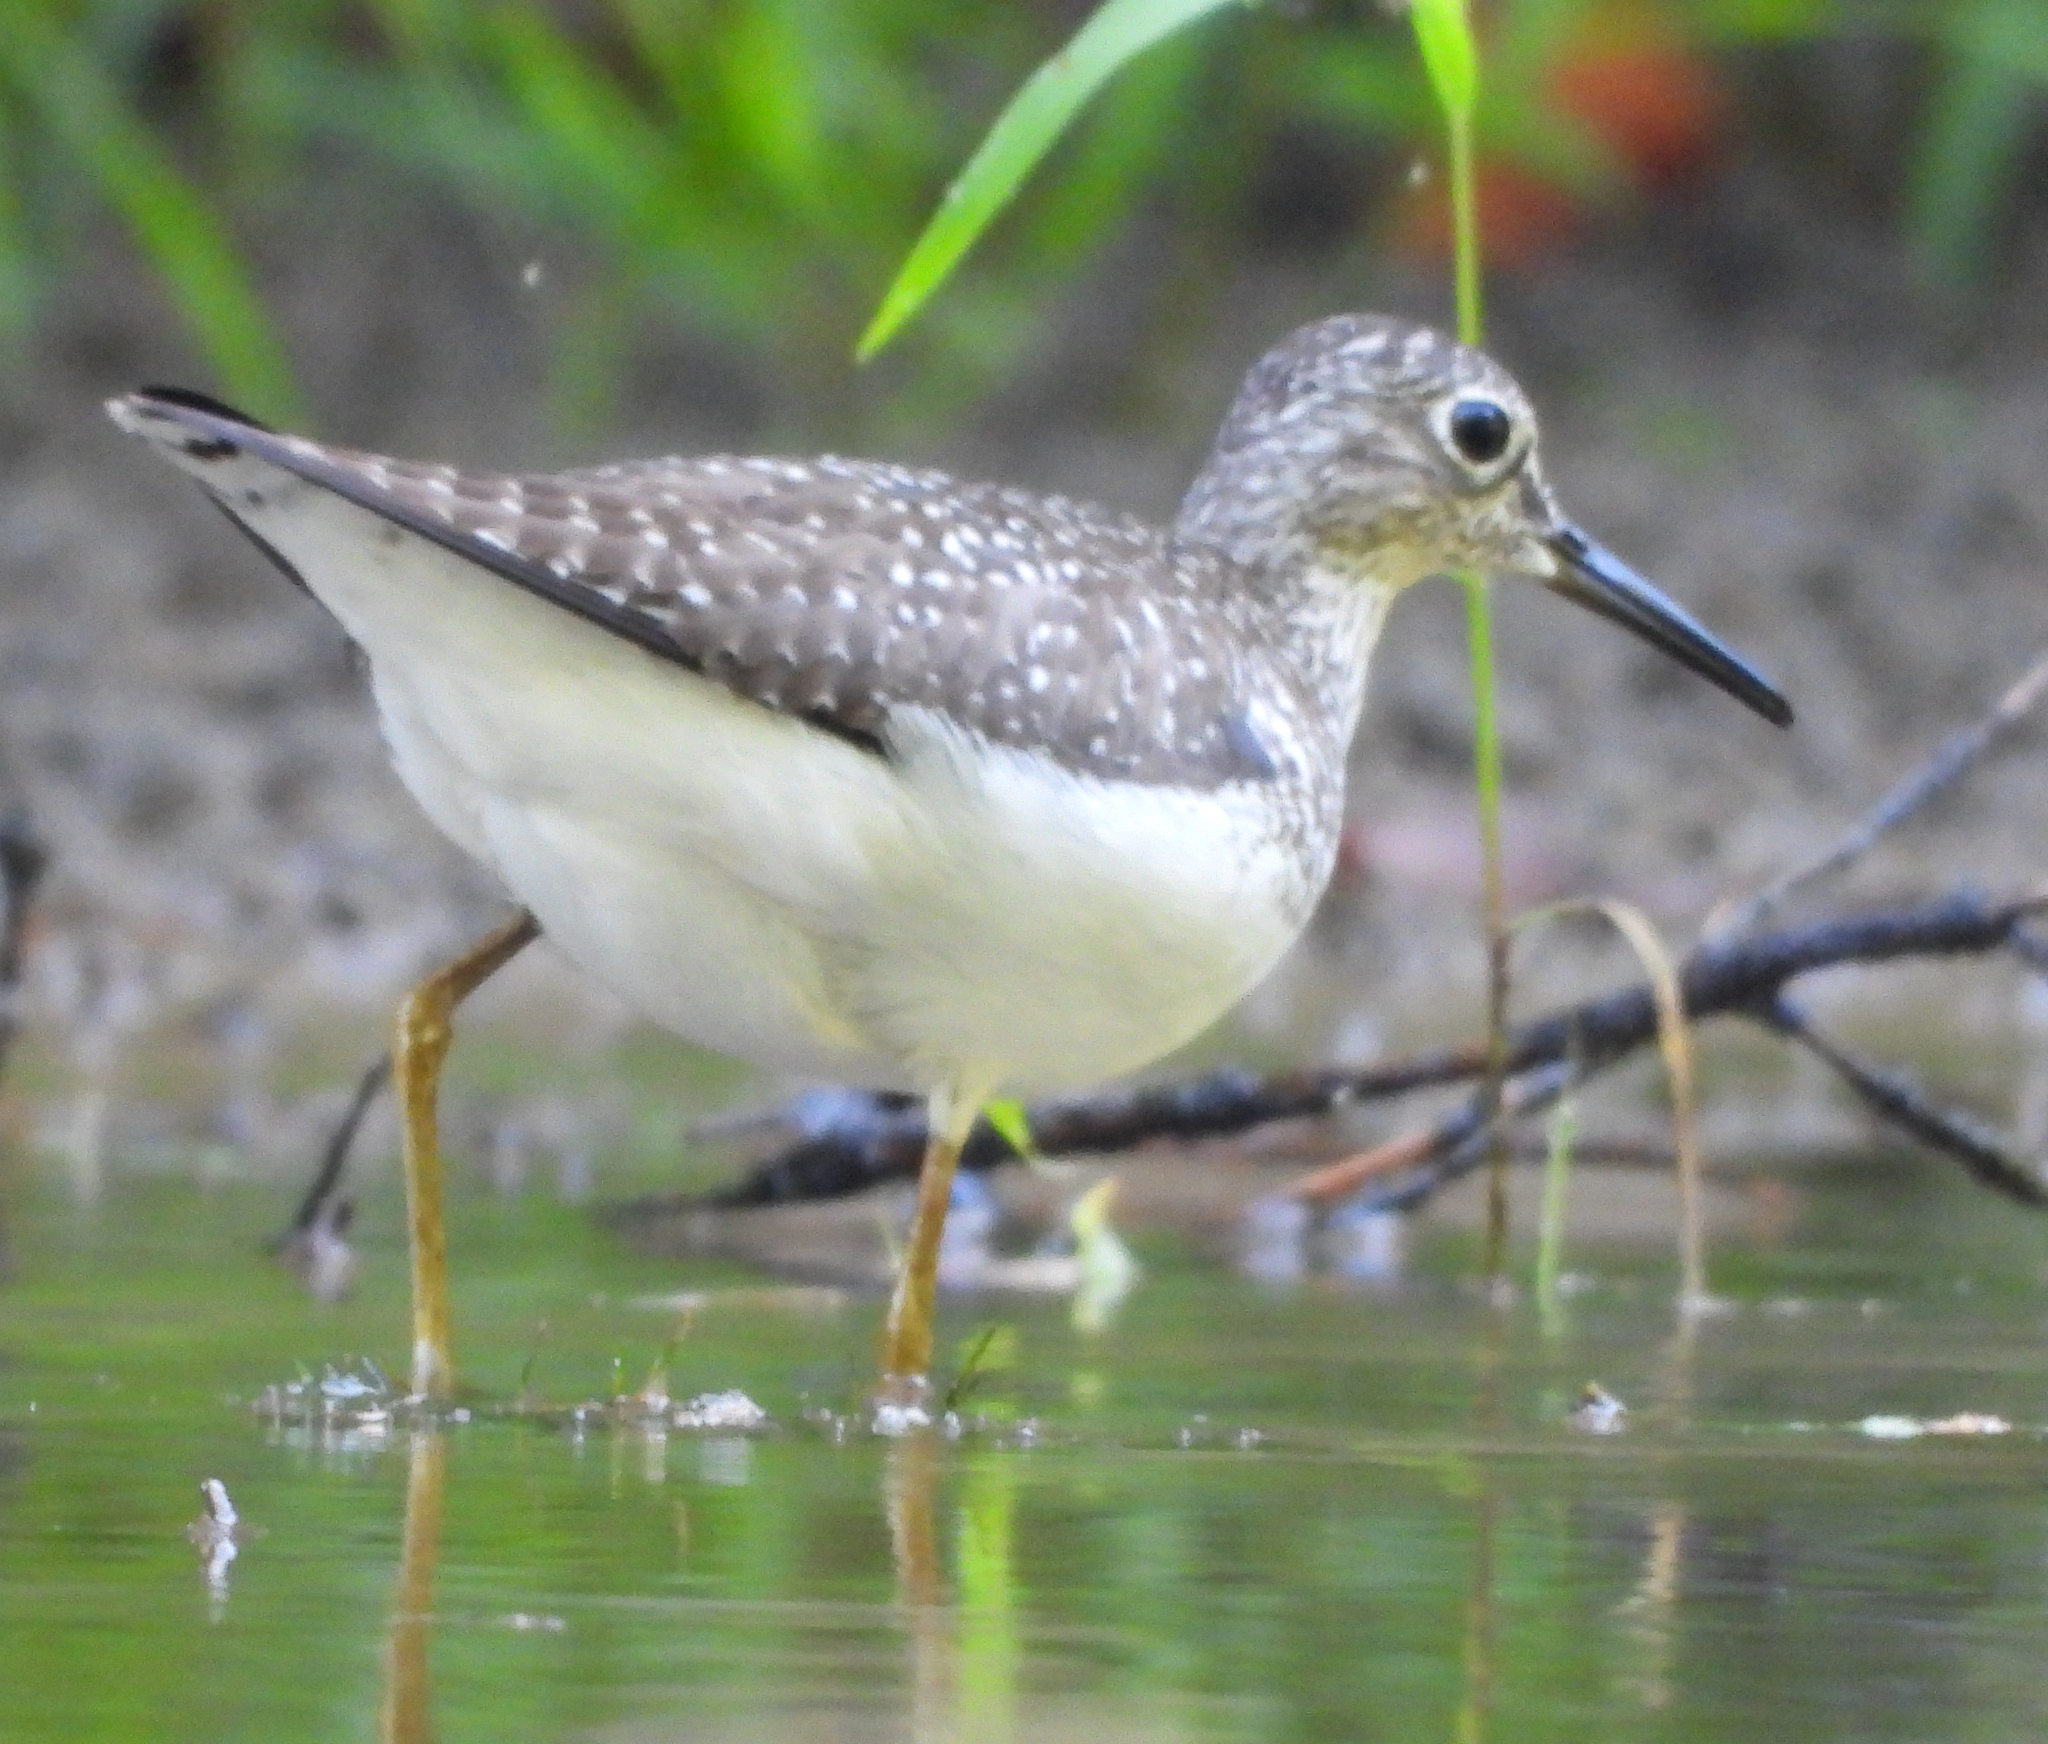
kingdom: Animalia
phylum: Chordata
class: Aves
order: Charadriiformes
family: Scolopacidae
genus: Tringa
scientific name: Tringa solitaria
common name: Solitary sandpiper
